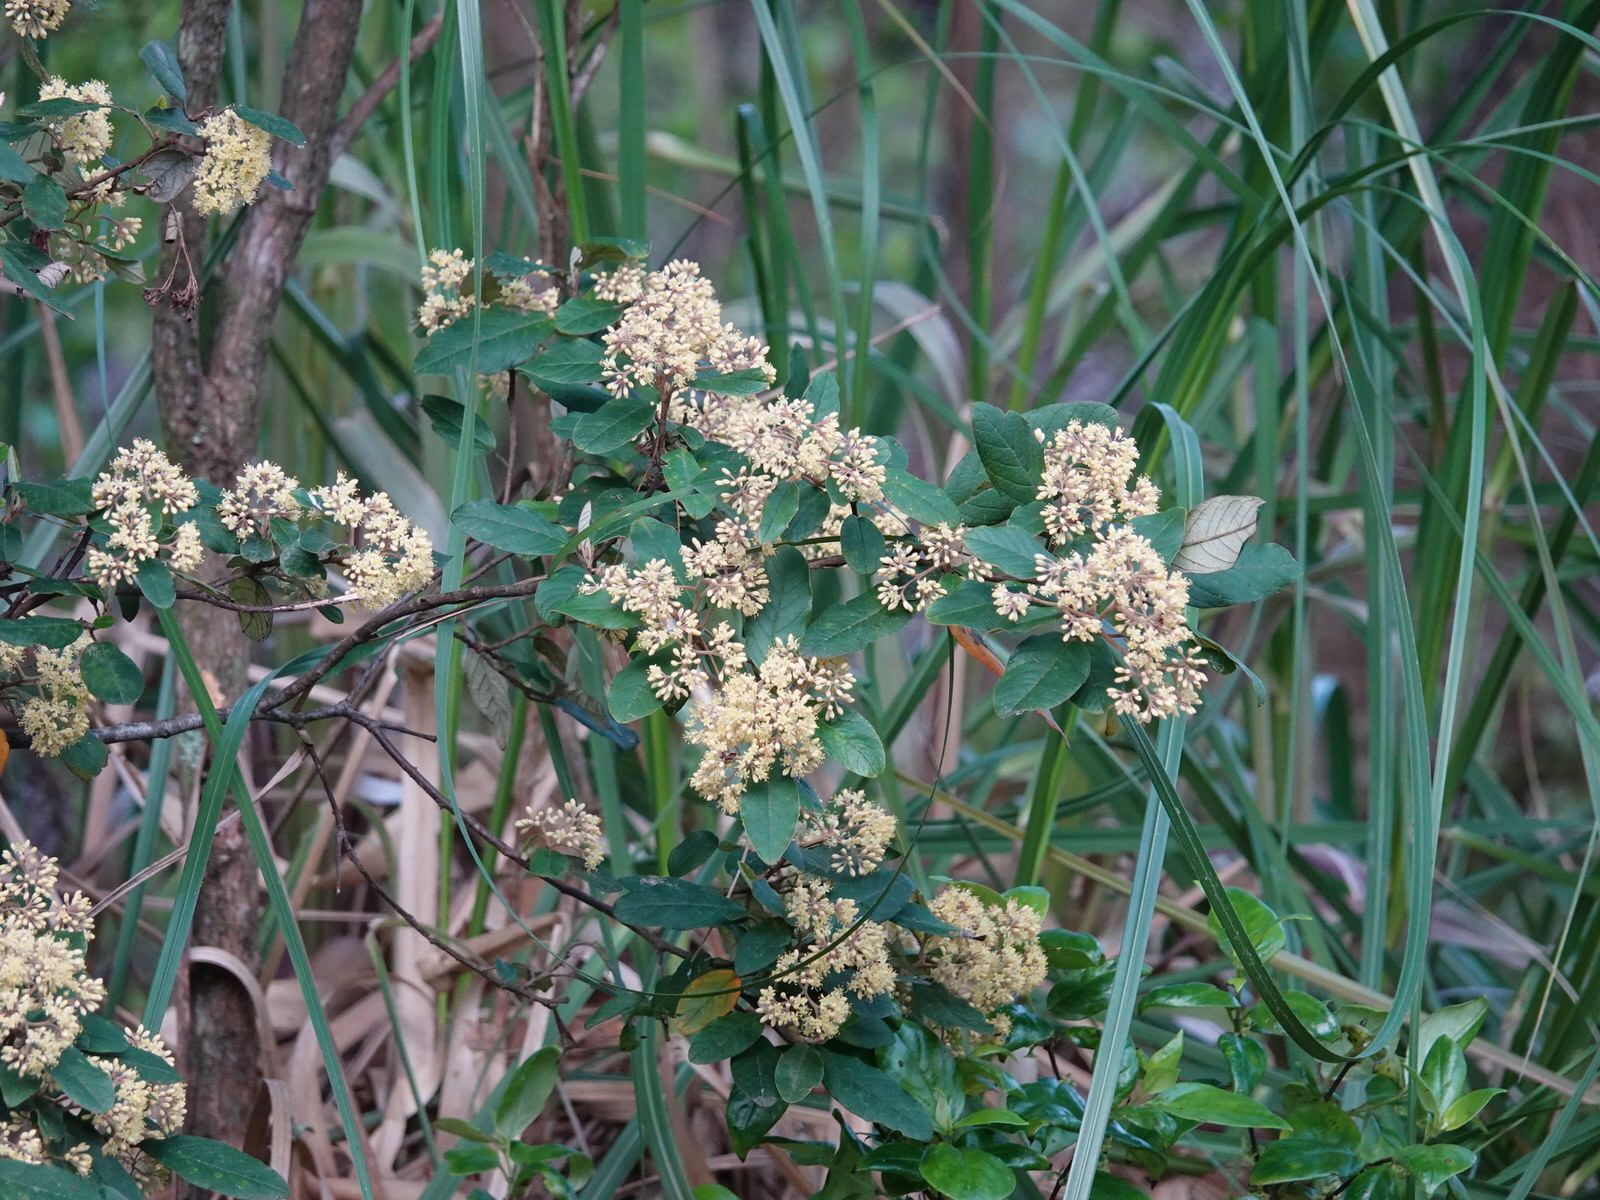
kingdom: Plantae
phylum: Tracheophyta
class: Magnoliopsida
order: Rosales
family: Rhamnaceae
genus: Pomaderris
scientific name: Pomaderris kumeraho
